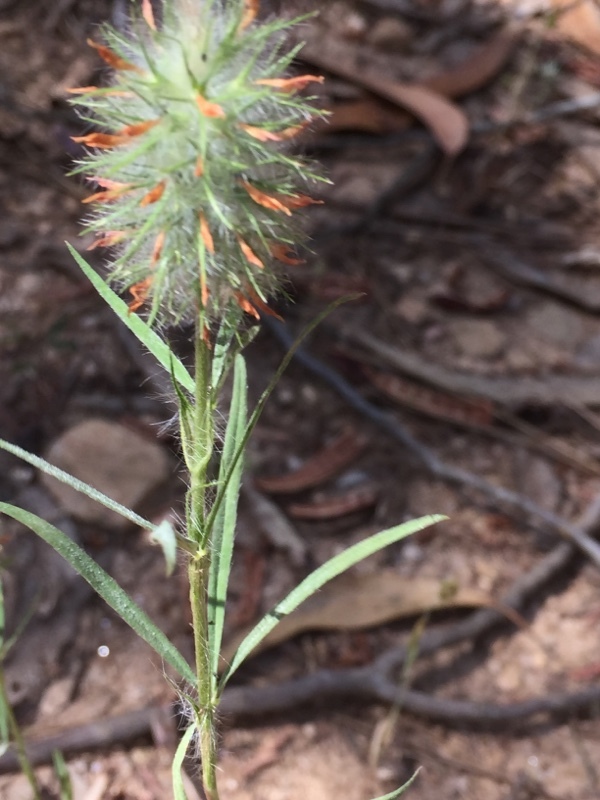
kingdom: Plantae
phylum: Tracheophyta
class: Magnoliopsida
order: Fabales
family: Fabaceae
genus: Trifolium
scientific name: Trifolium angustifolium
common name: Narrow clover
